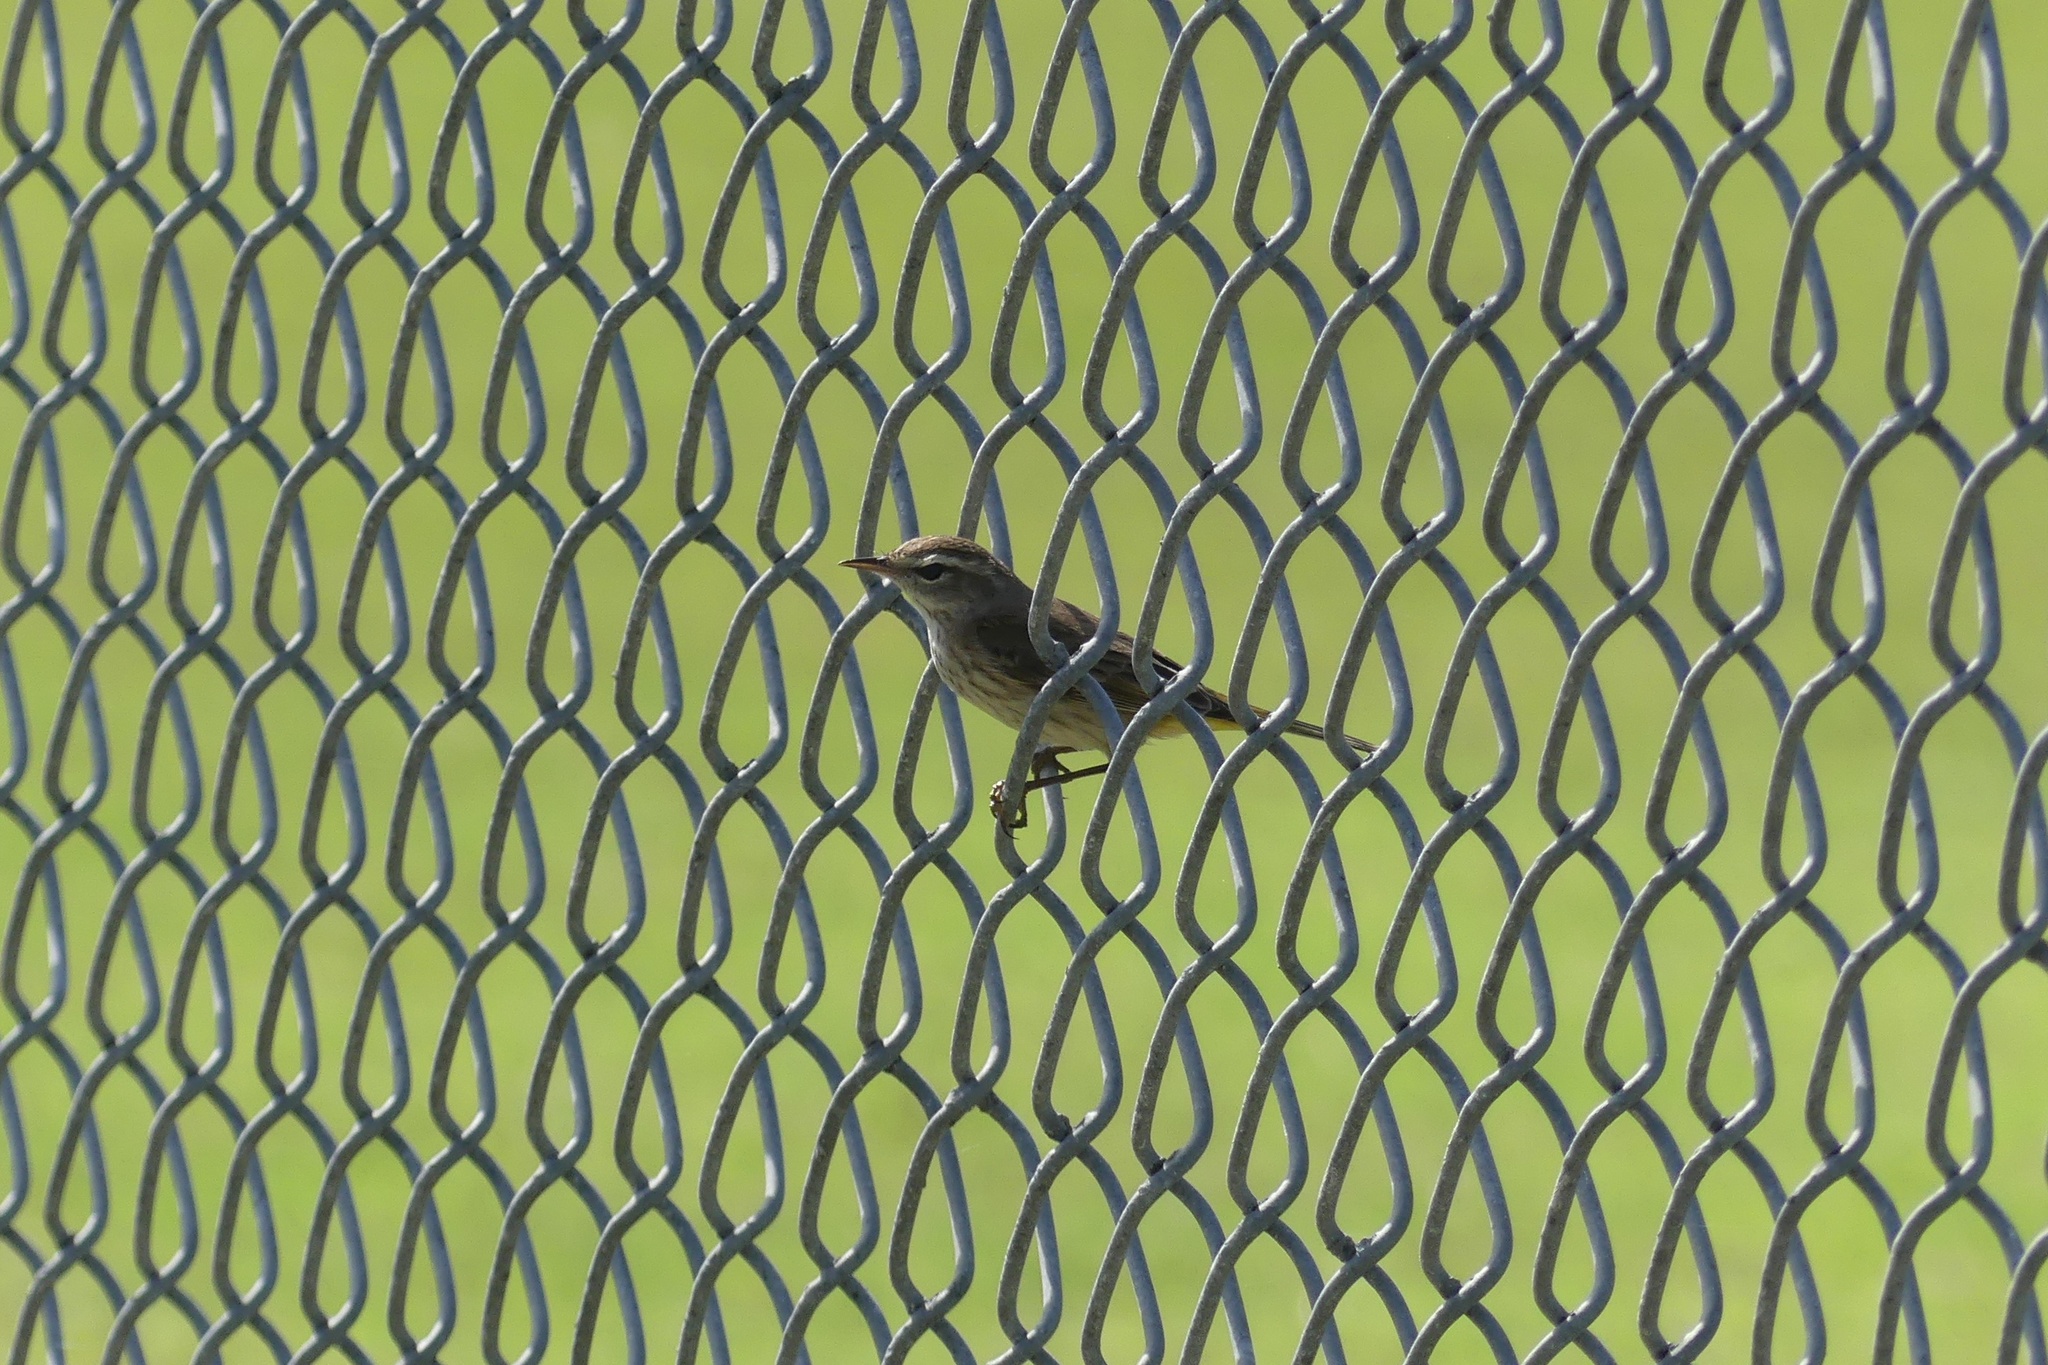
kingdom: Animalia
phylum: Chordata
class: Aves
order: Passeriformes
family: Parulidae
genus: Setophaga
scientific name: Setophaga palmarum
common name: Palm warbler
